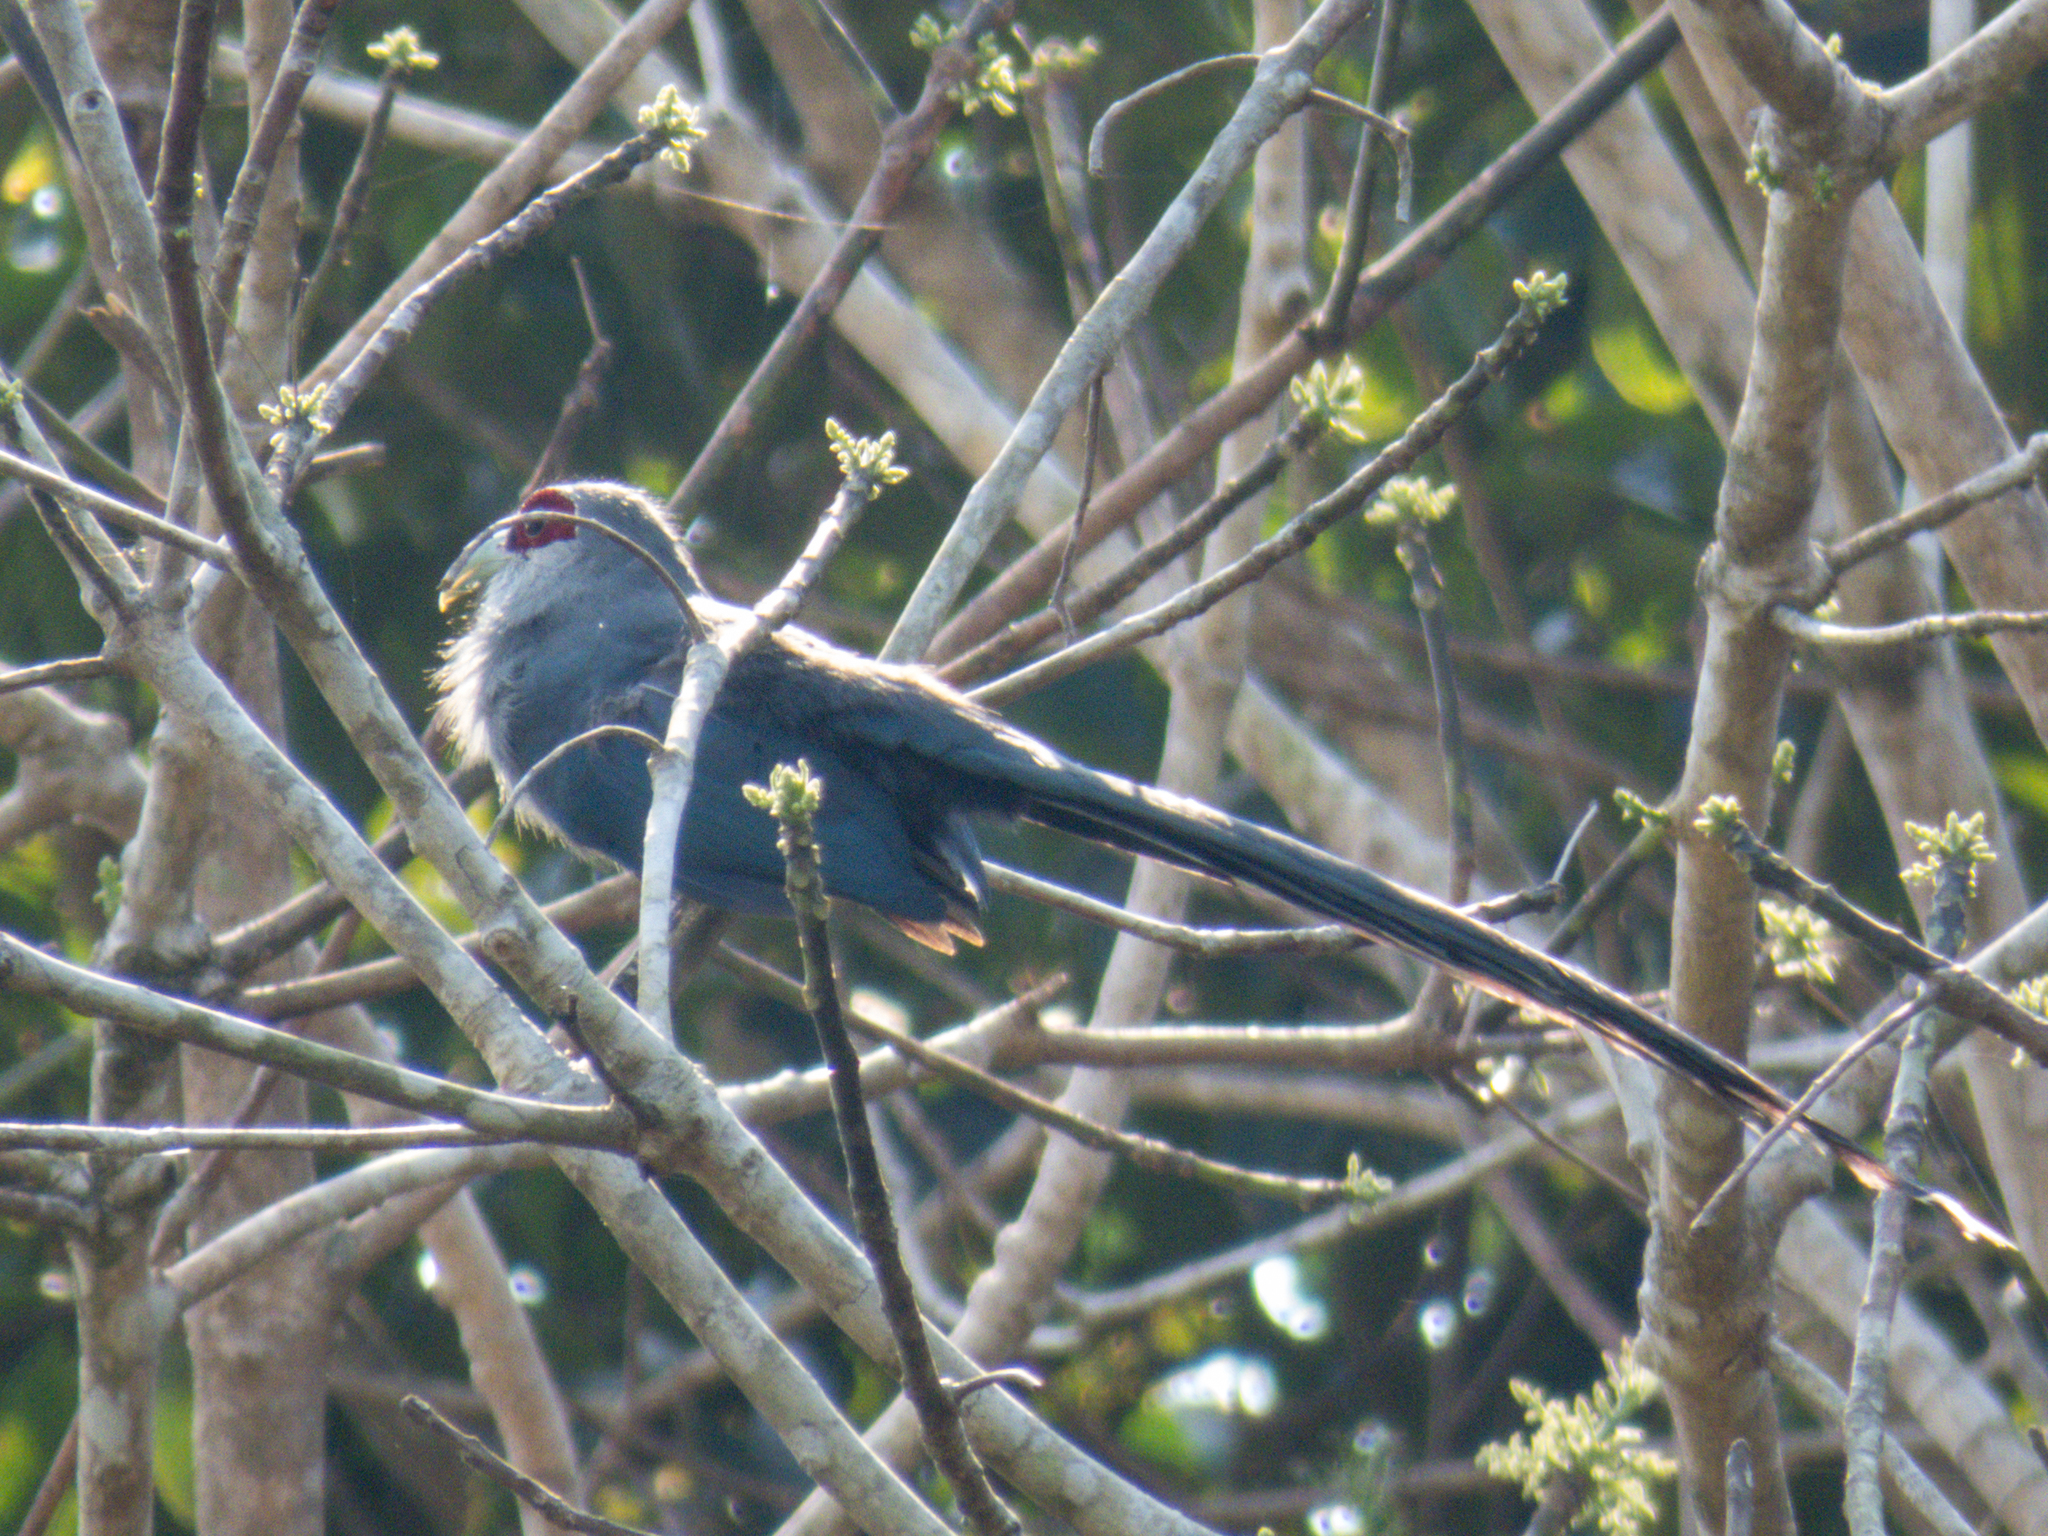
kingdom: Animalia
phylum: Chordata
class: Aves
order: Cuculiformes
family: Cuculidae
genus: Rhopodytes
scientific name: Rhopodytes tristis
